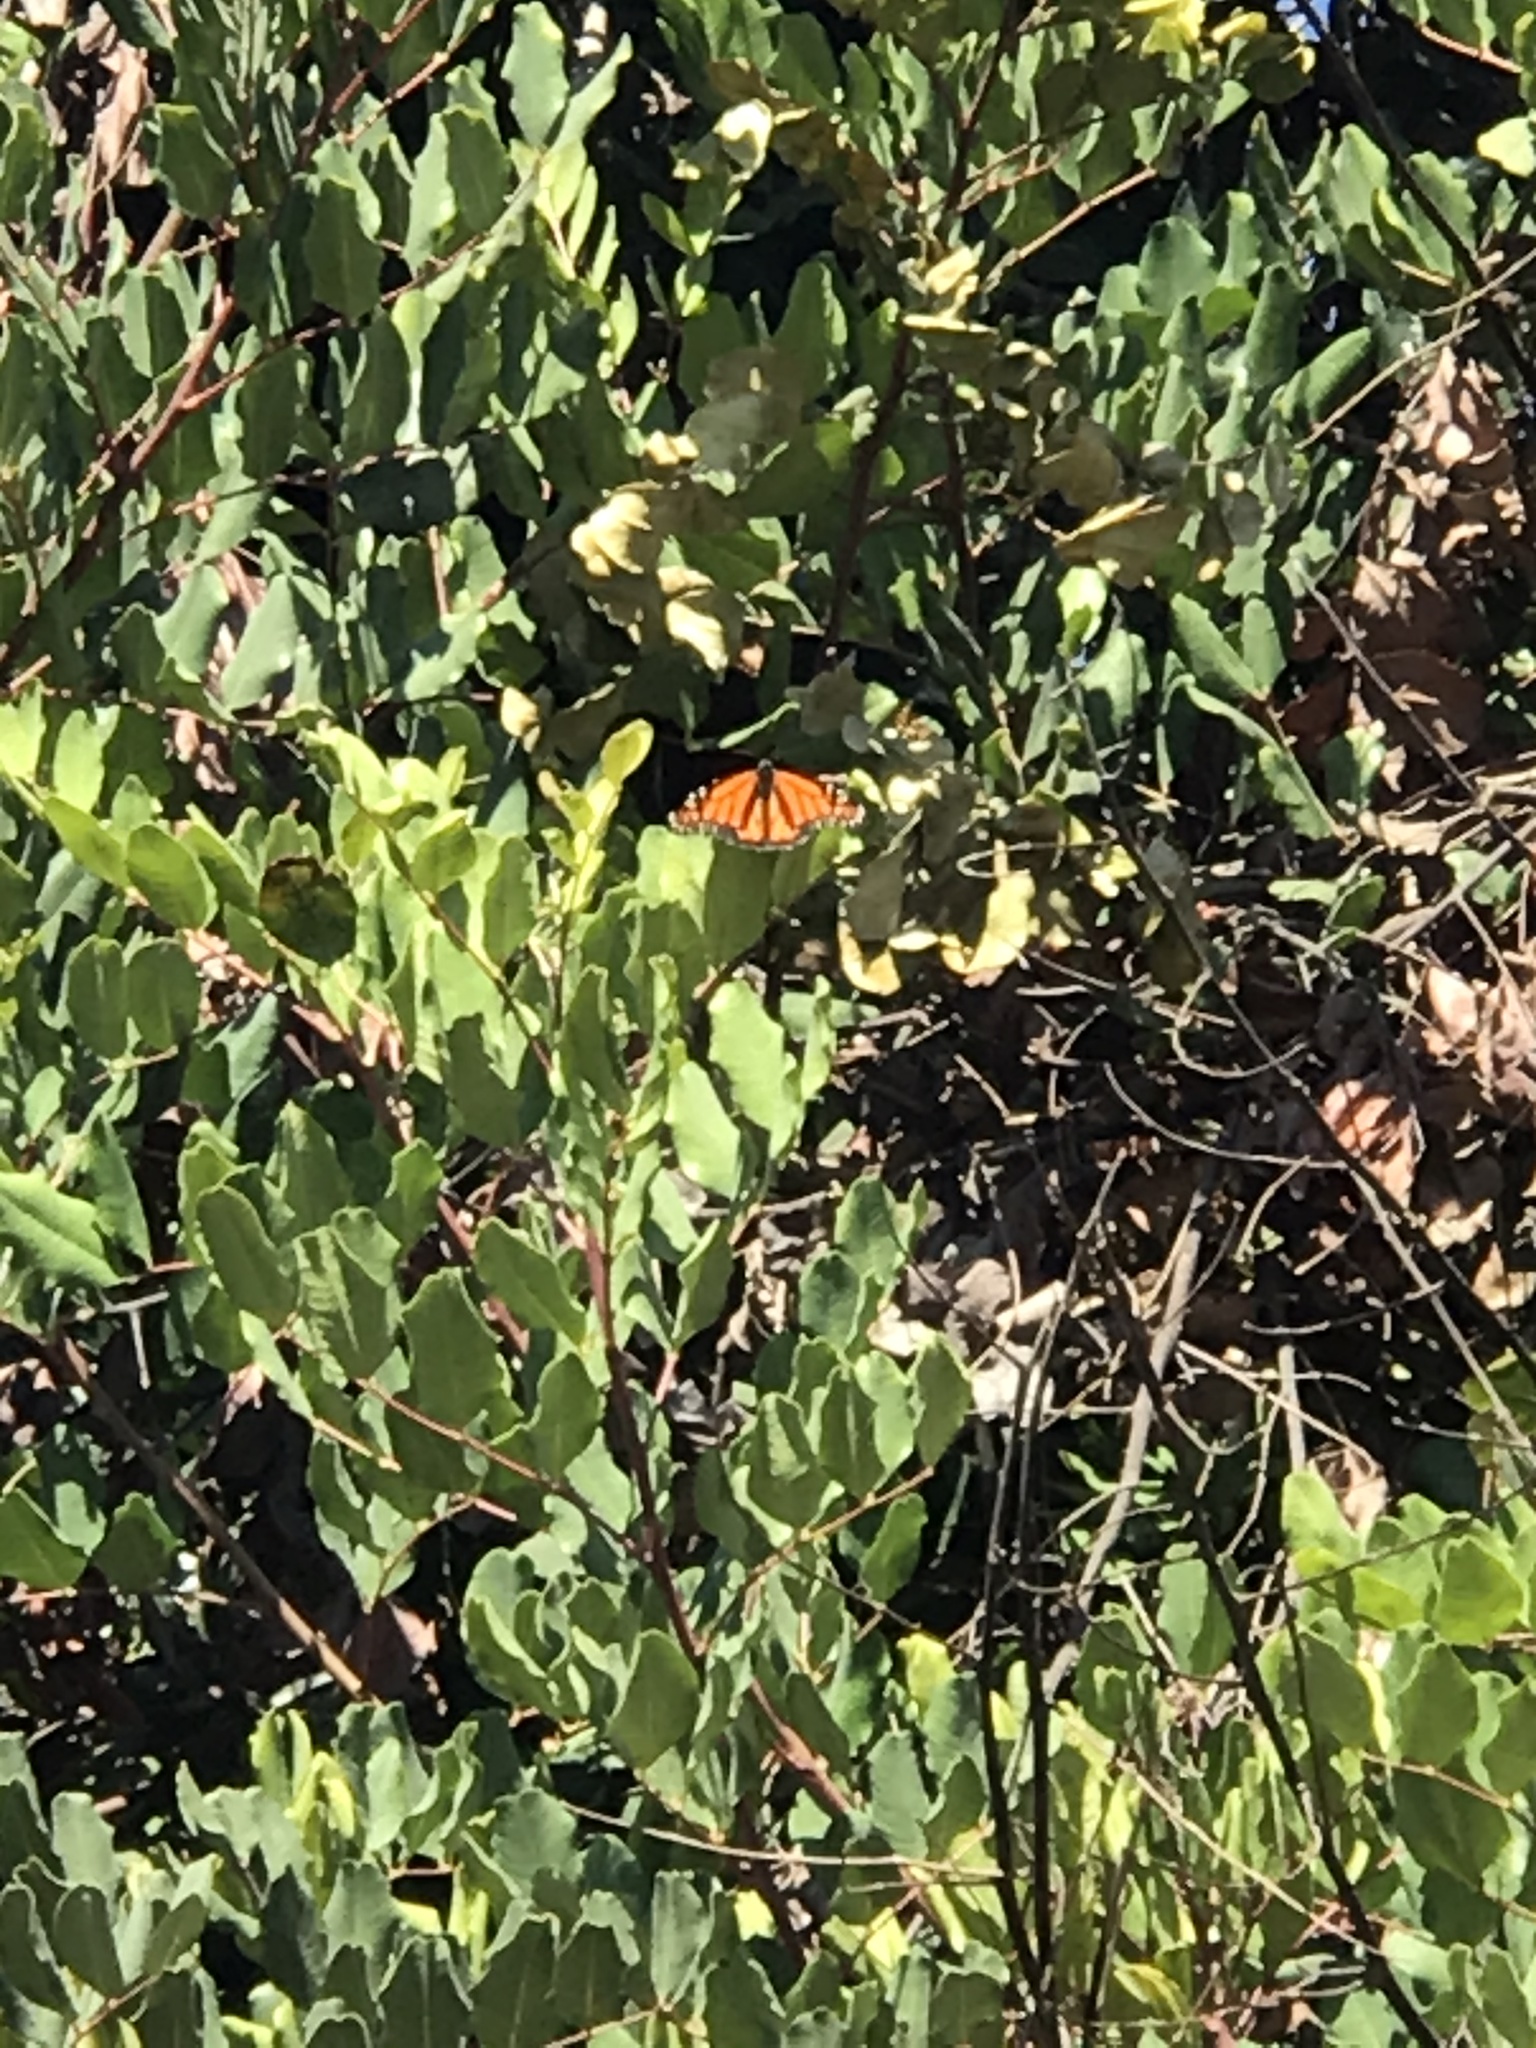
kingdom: Animalia
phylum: Arthropoda
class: Insecta
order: Lepidoptera
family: Nymphalidae
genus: Danaus
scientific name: Danaus plexippus
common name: Monarch
